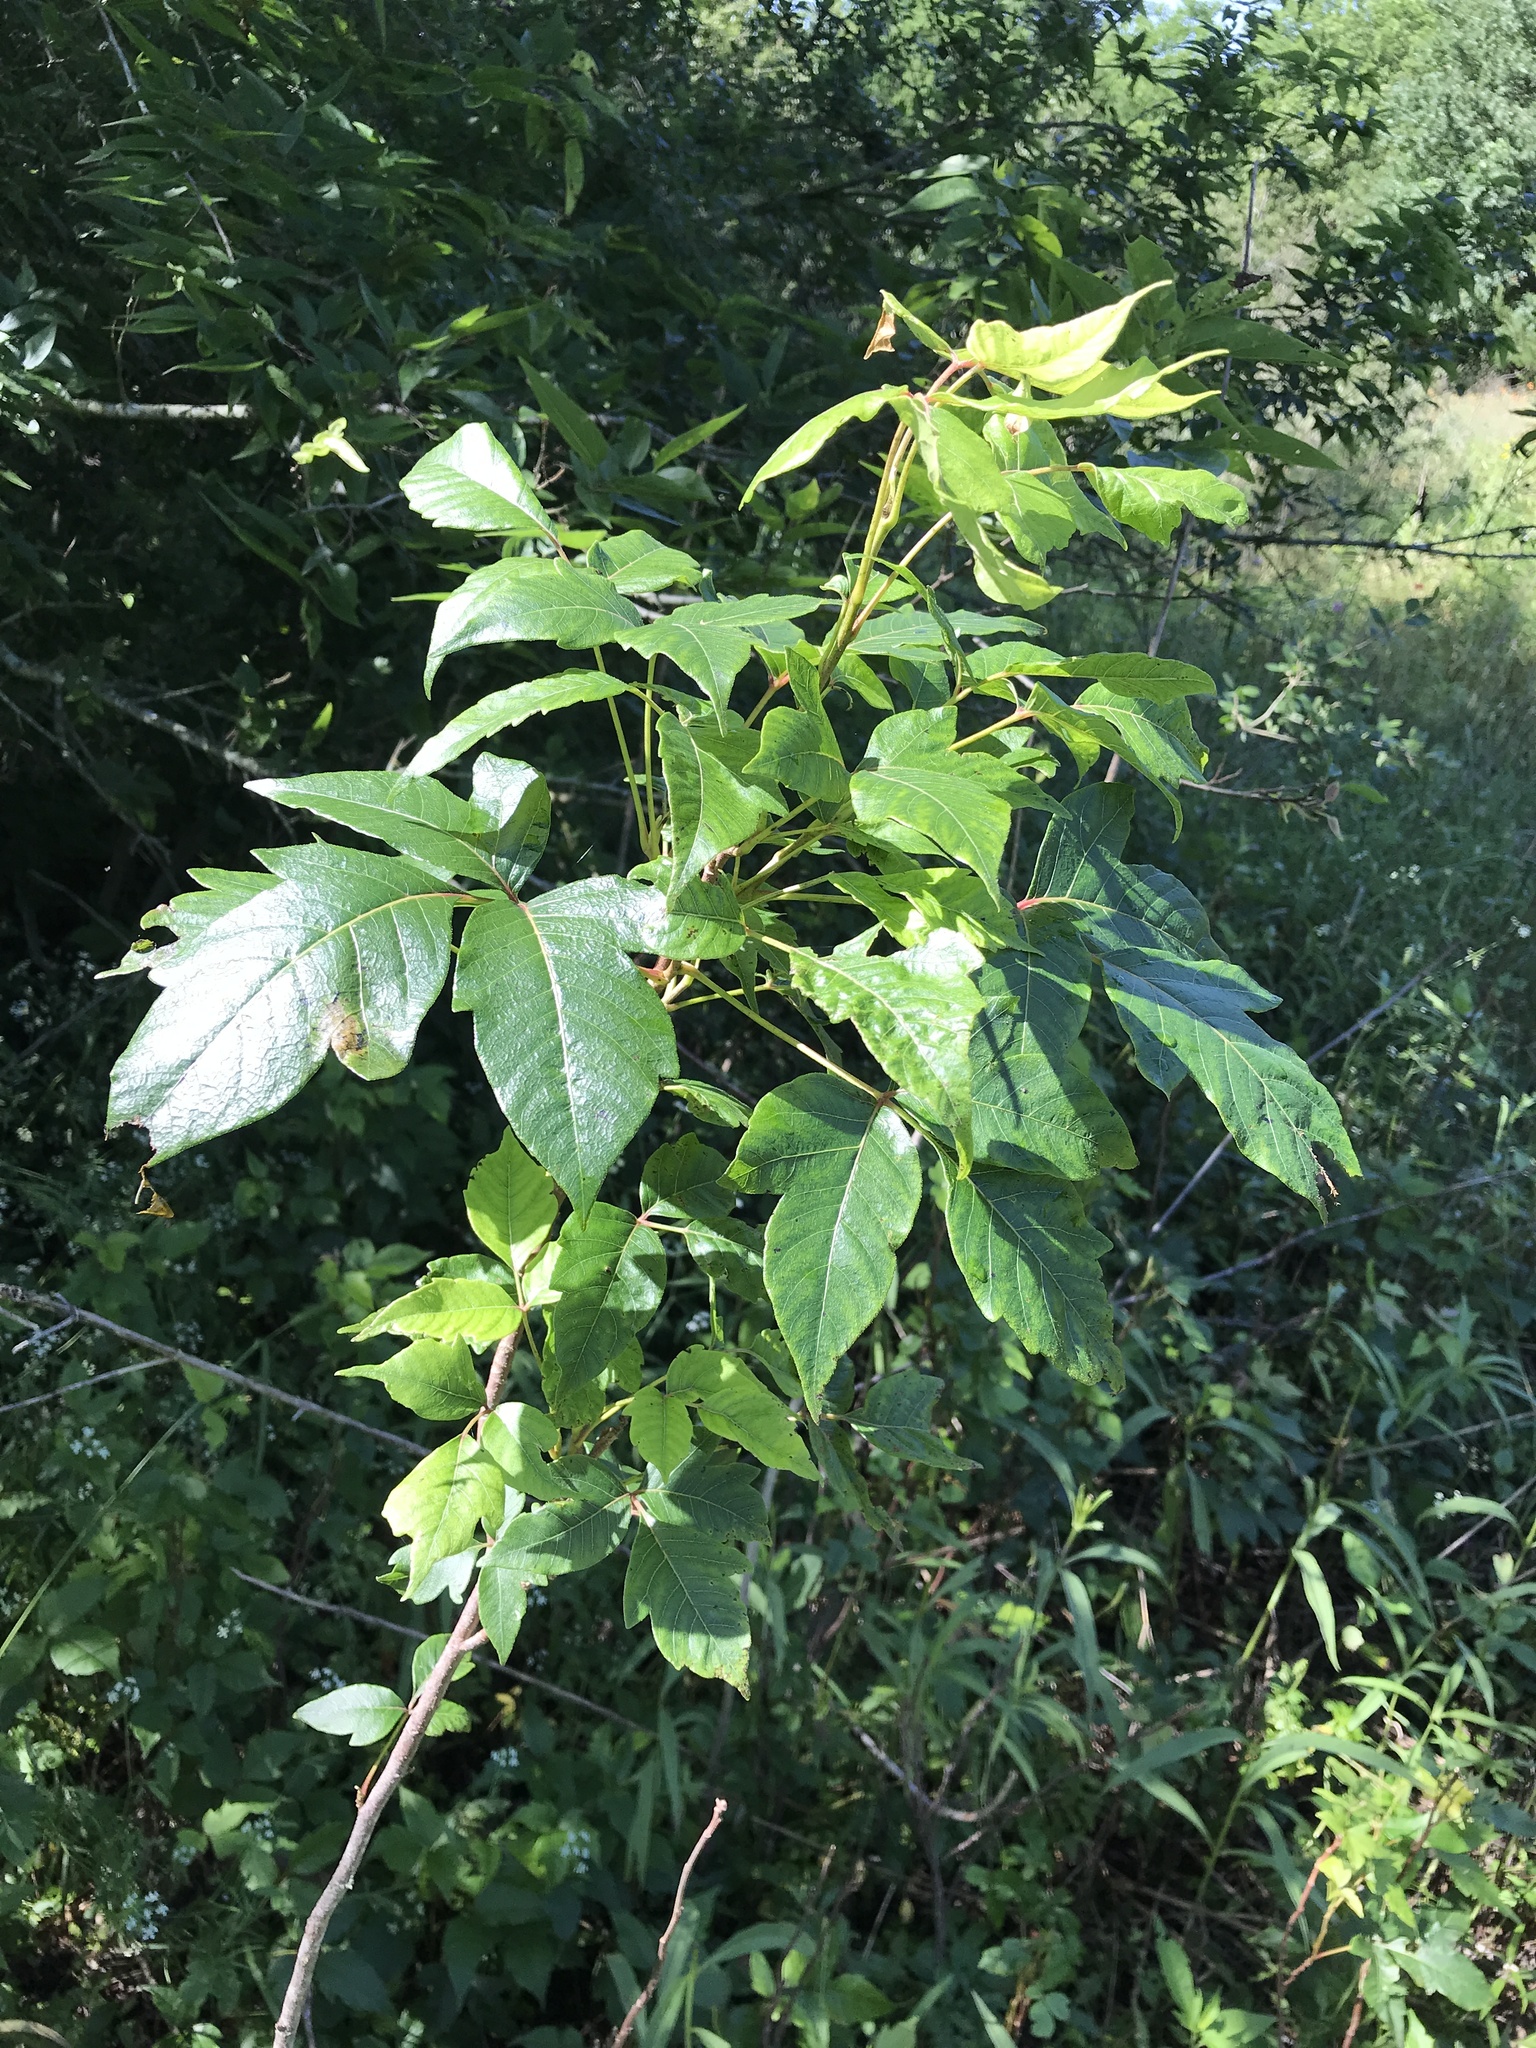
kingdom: Plantae
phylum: Tracheophyta
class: Magnoliopsida
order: Sapindales
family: Anacardiaceae
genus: Toxicodendron
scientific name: Toxicodendron radicans
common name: Poison ivy
